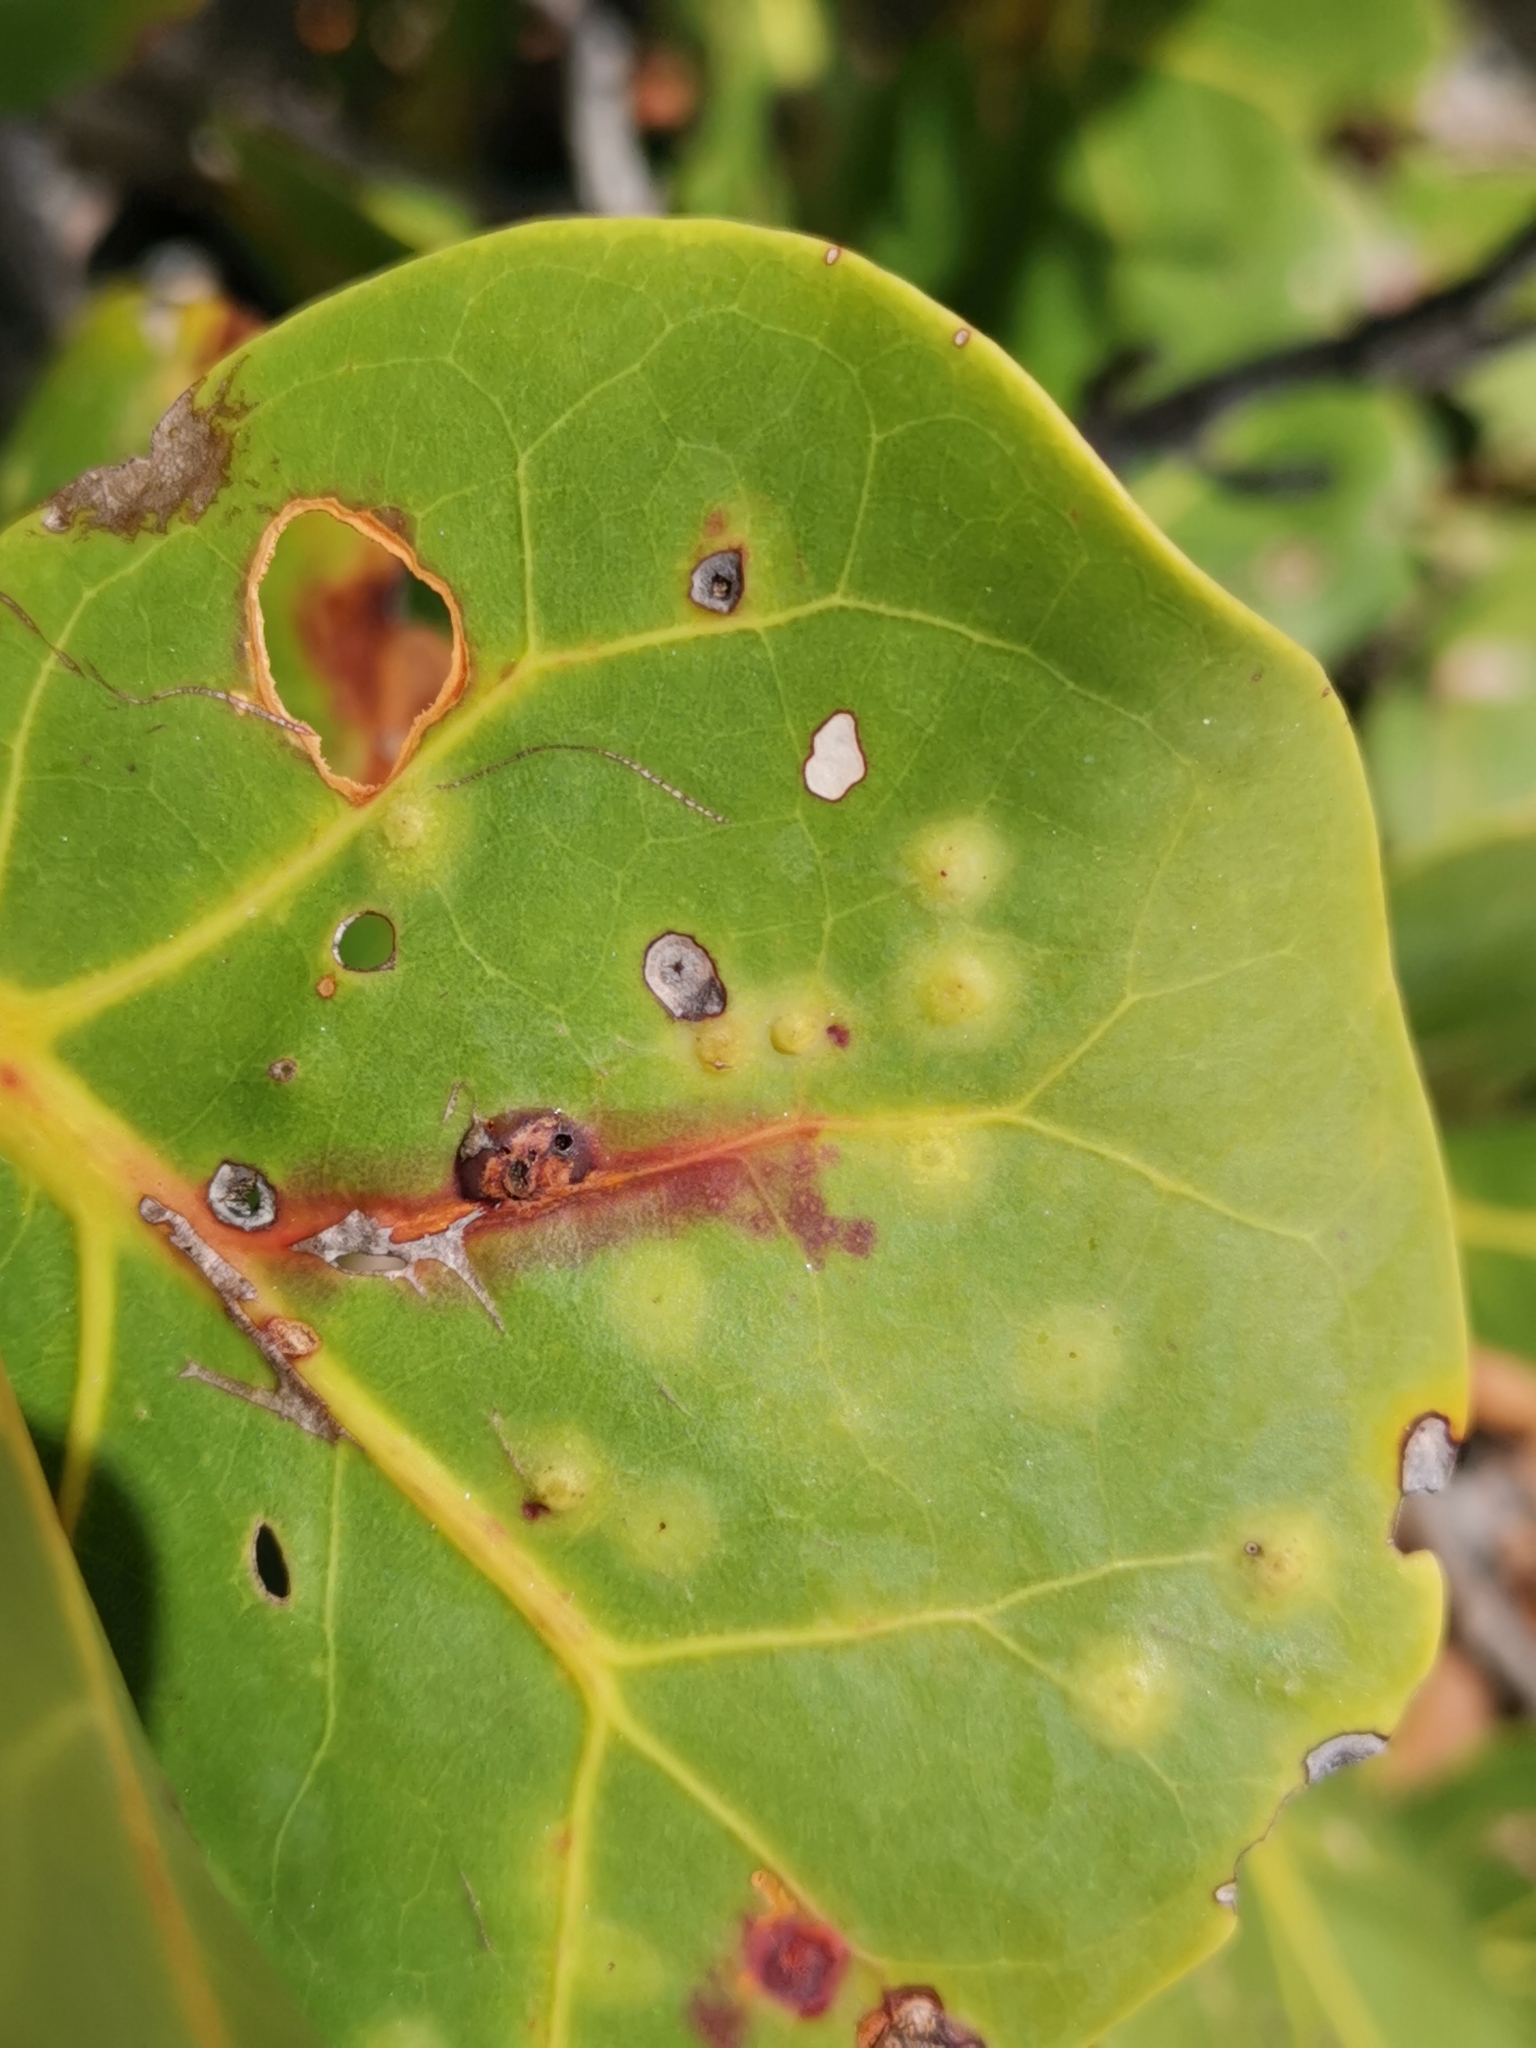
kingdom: Animalia
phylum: Arthropoda
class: Insecta
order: Diptera
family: Cecidomyiidae
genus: Ctenodactylomyia
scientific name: Ctenodactylomyia watsoni
